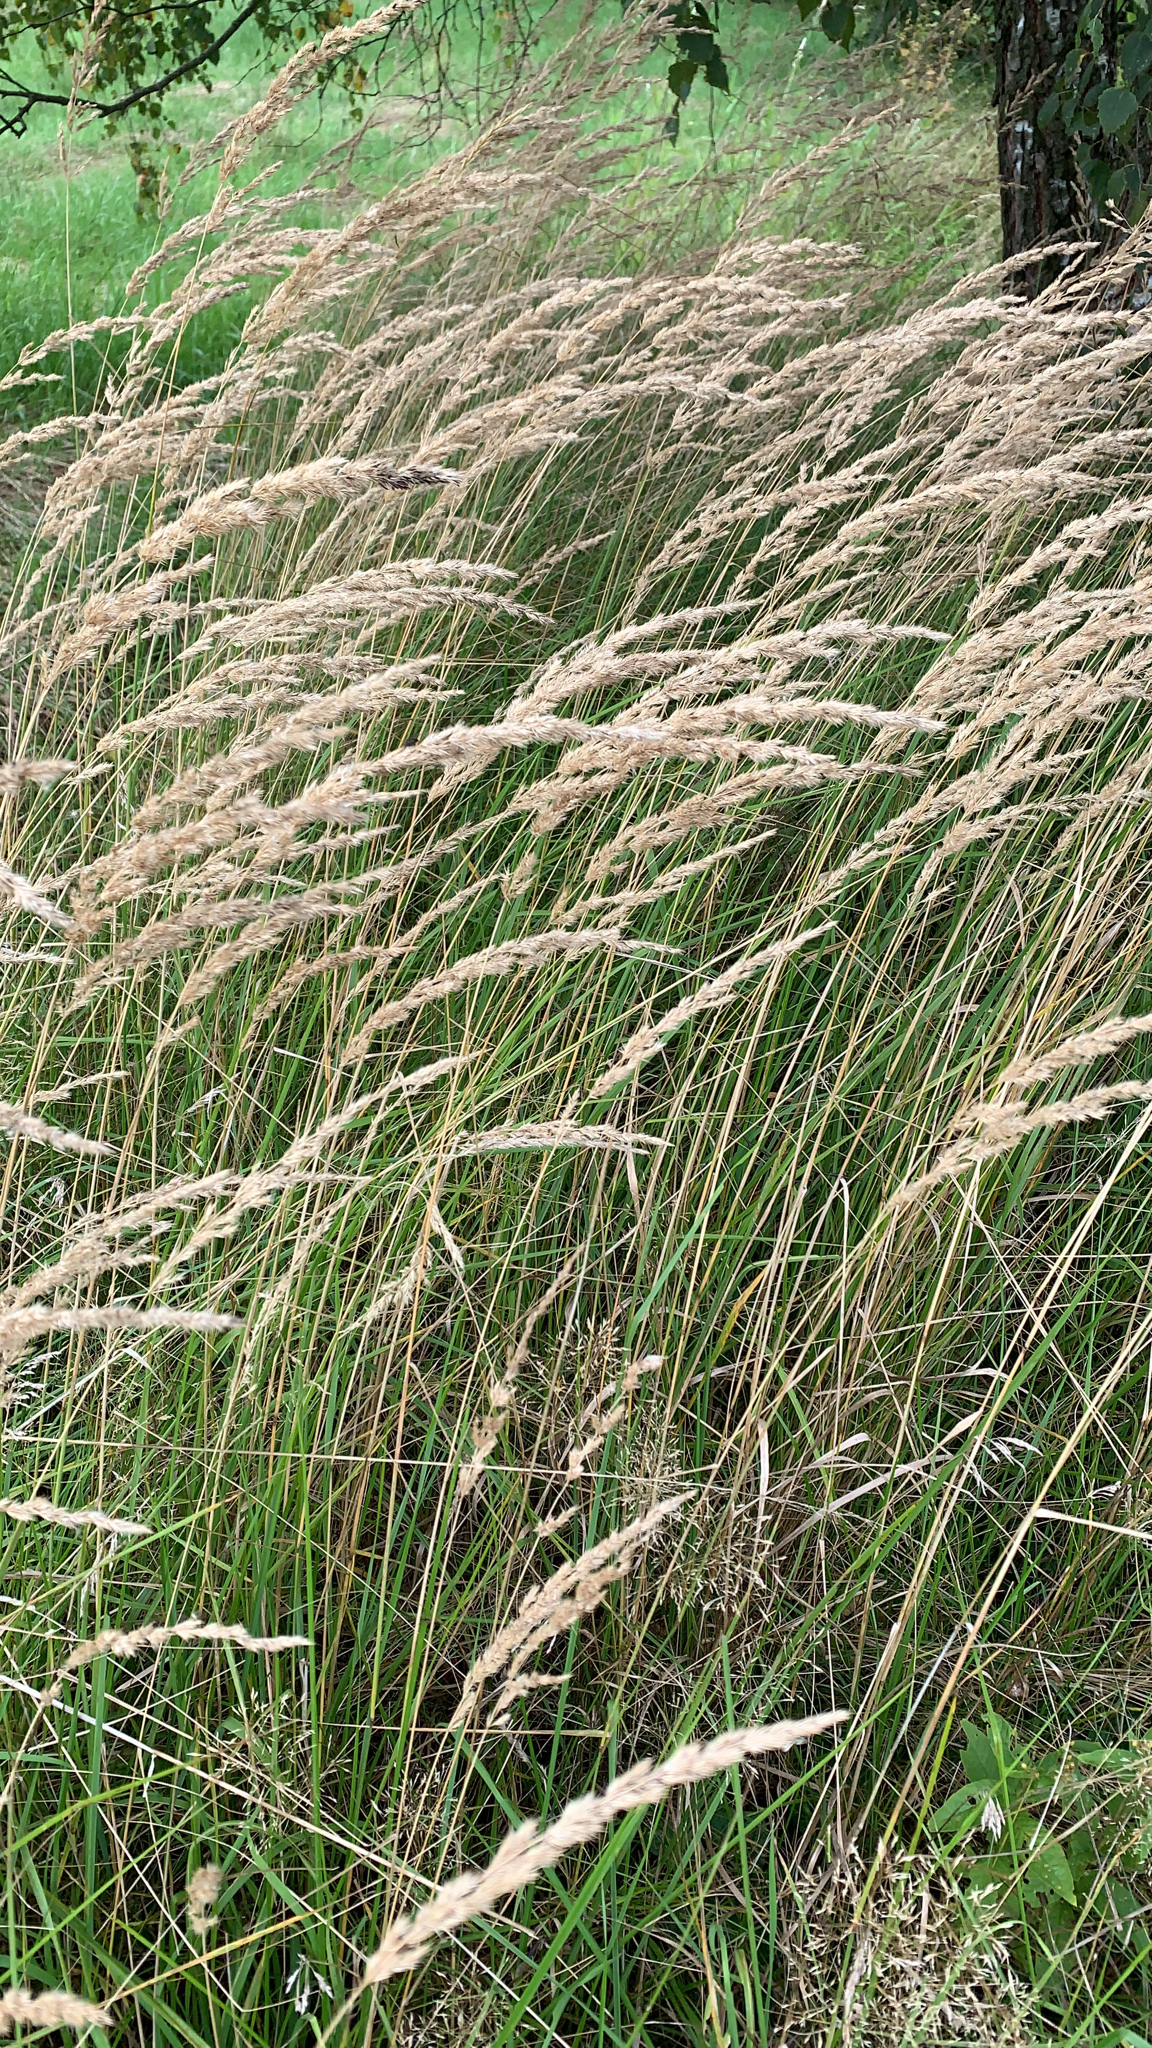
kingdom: Plantae
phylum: Tracheophyta
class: Liliopsida
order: Poales
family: Poaceae
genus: Calamagrostis
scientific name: Calamagrostis epigejos
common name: Wood small-reed
